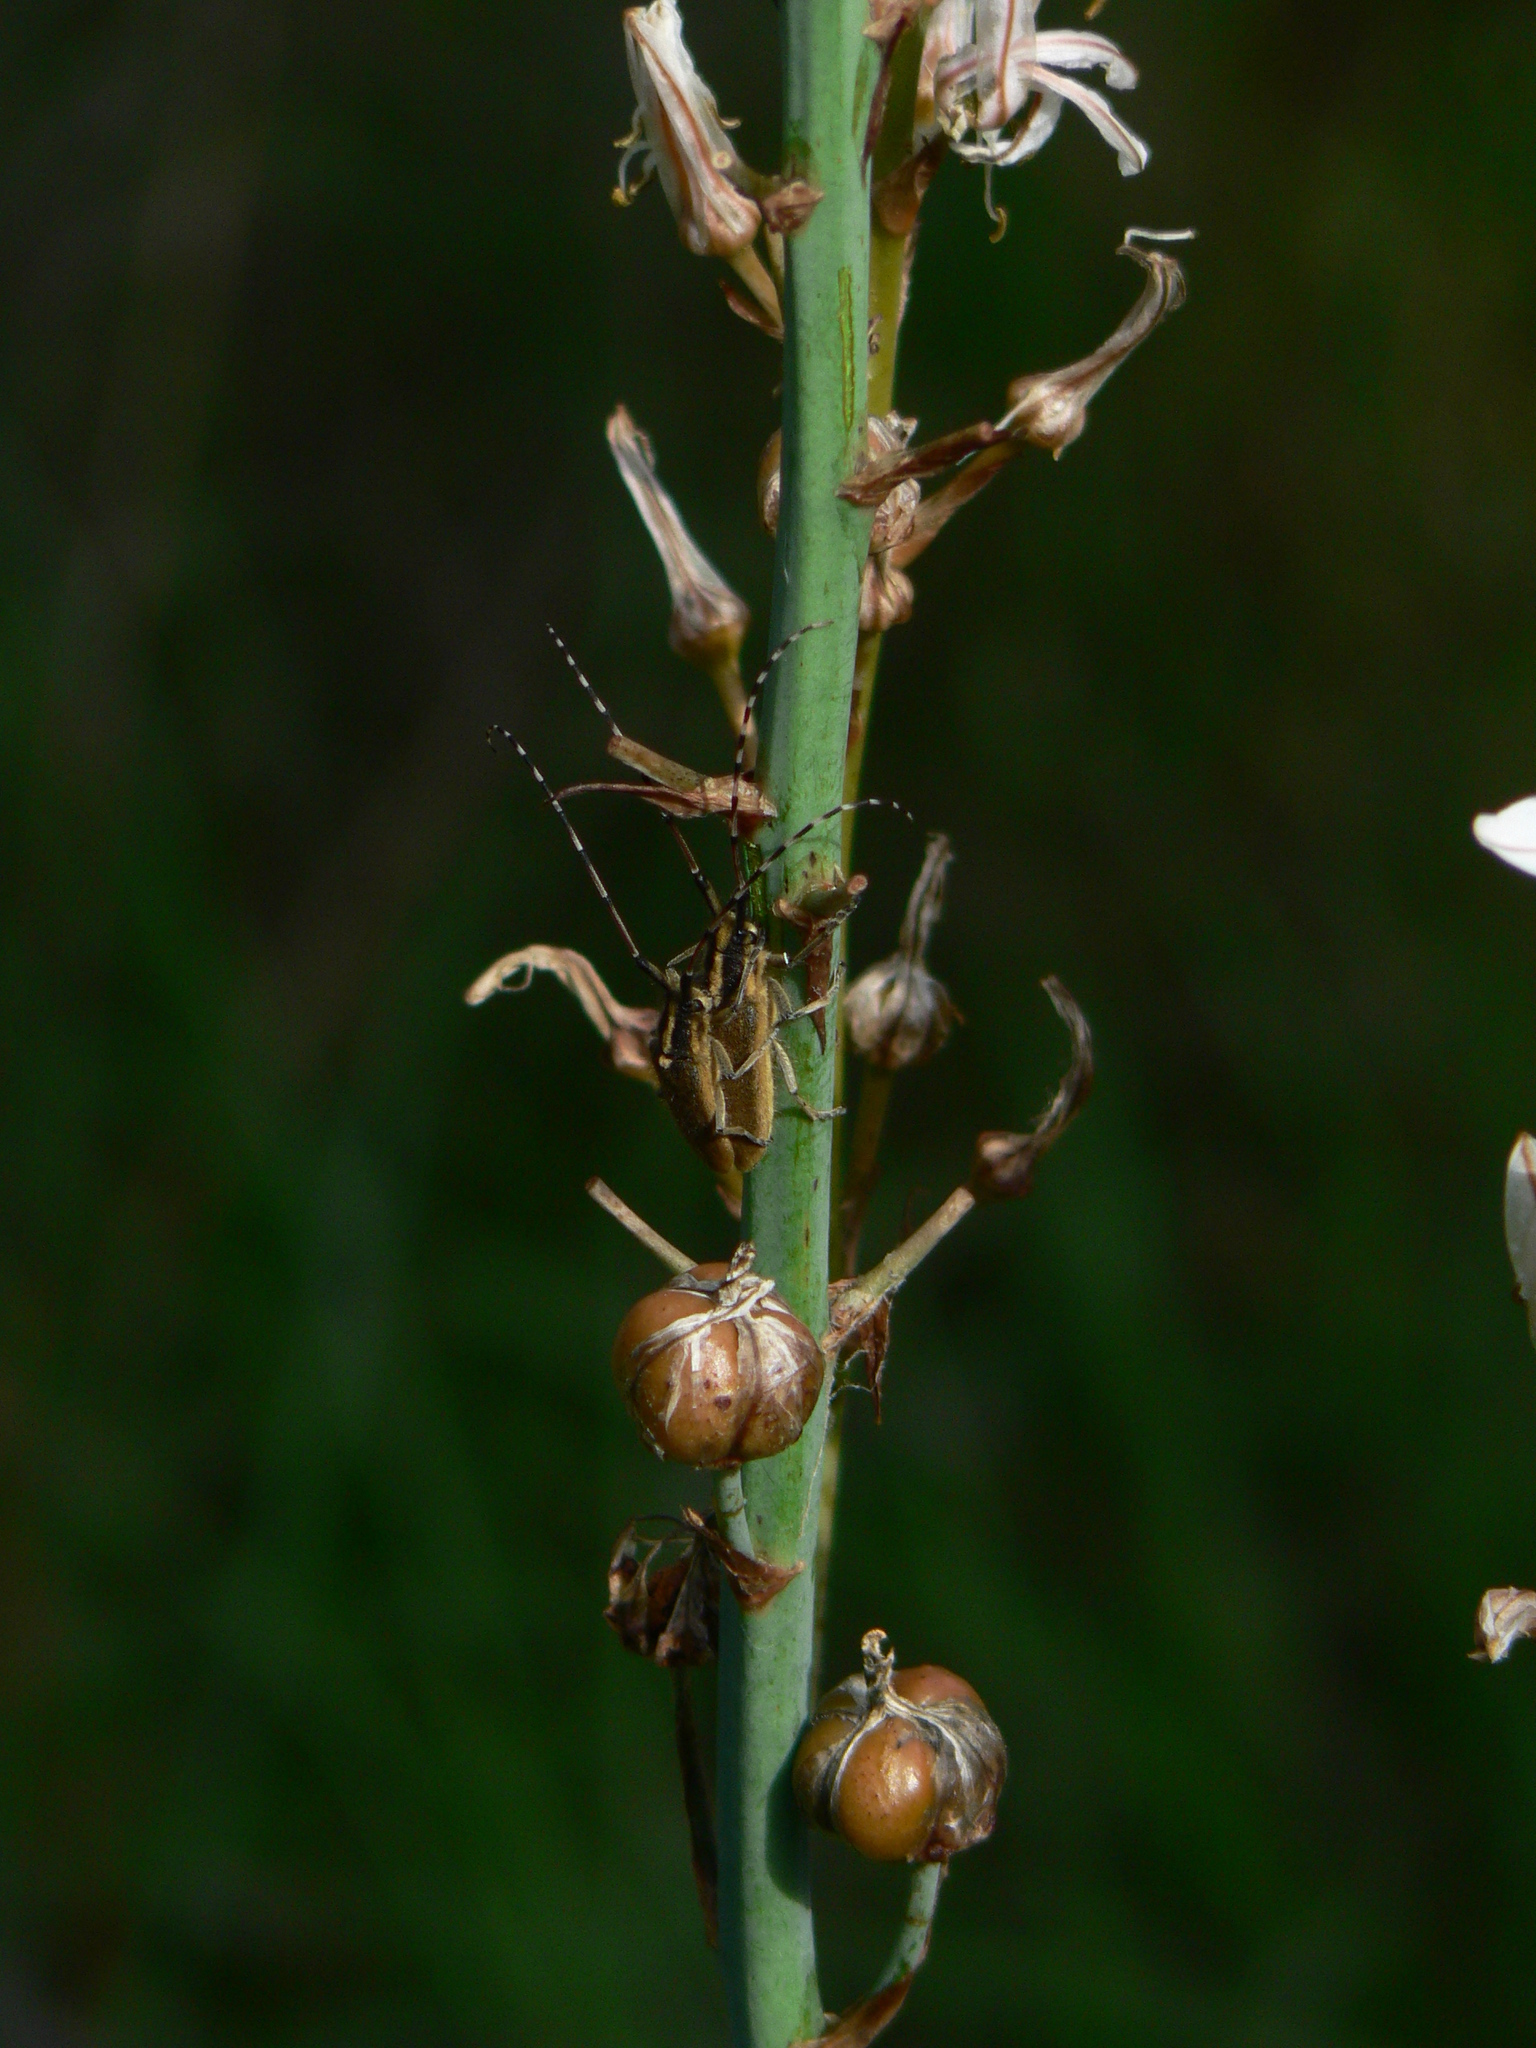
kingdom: Animalia
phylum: Arthropoda
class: Insecta
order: Coleoptera
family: Cerambycidae
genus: Agapanthia
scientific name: Agapanthia asphodeli
